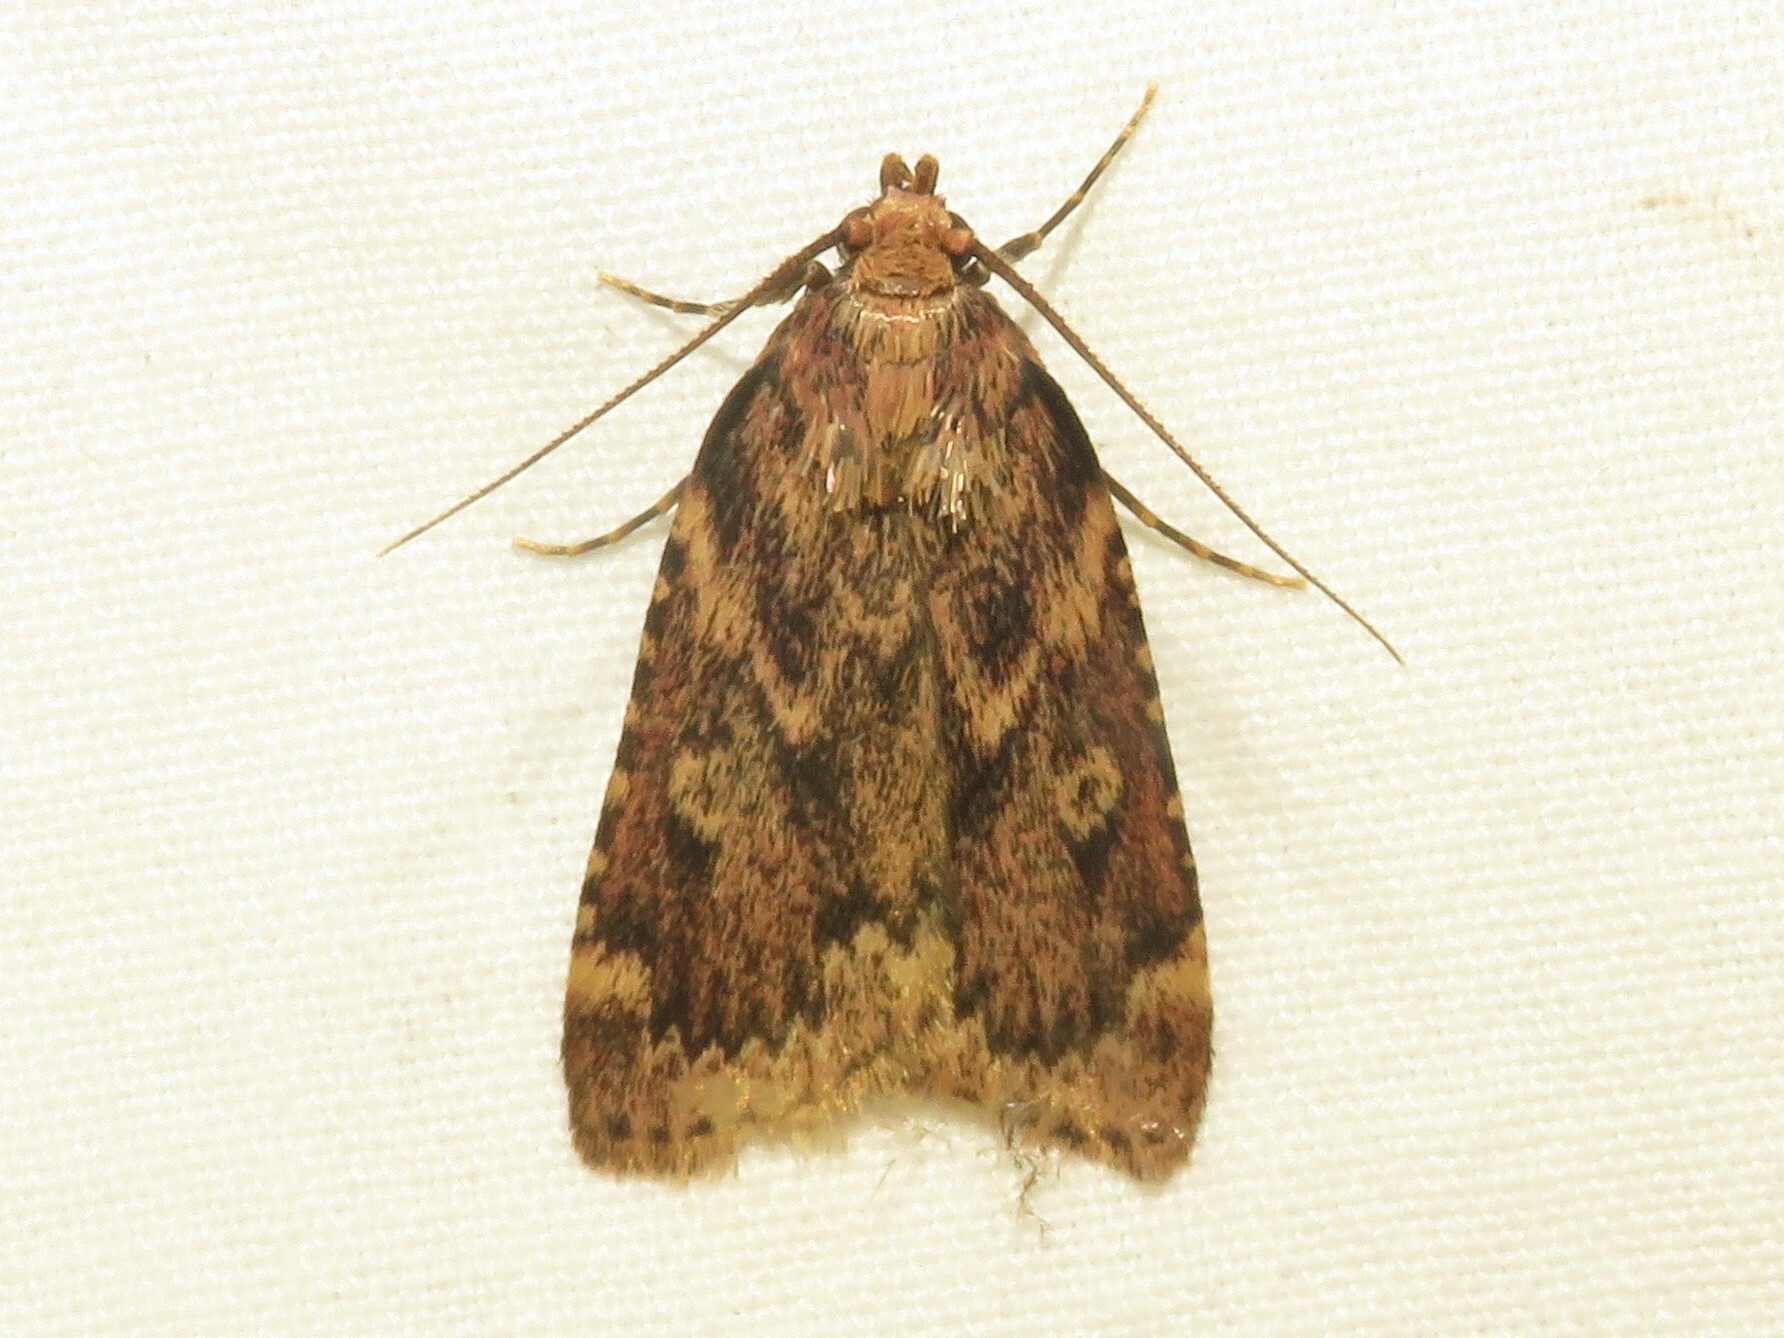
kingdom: Animalia
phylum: Arthropoda
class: Insecta
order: Lepidoptera
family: Pyralidae
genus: Aglossa
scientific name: Aglossa cuprina
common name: Grease moth
